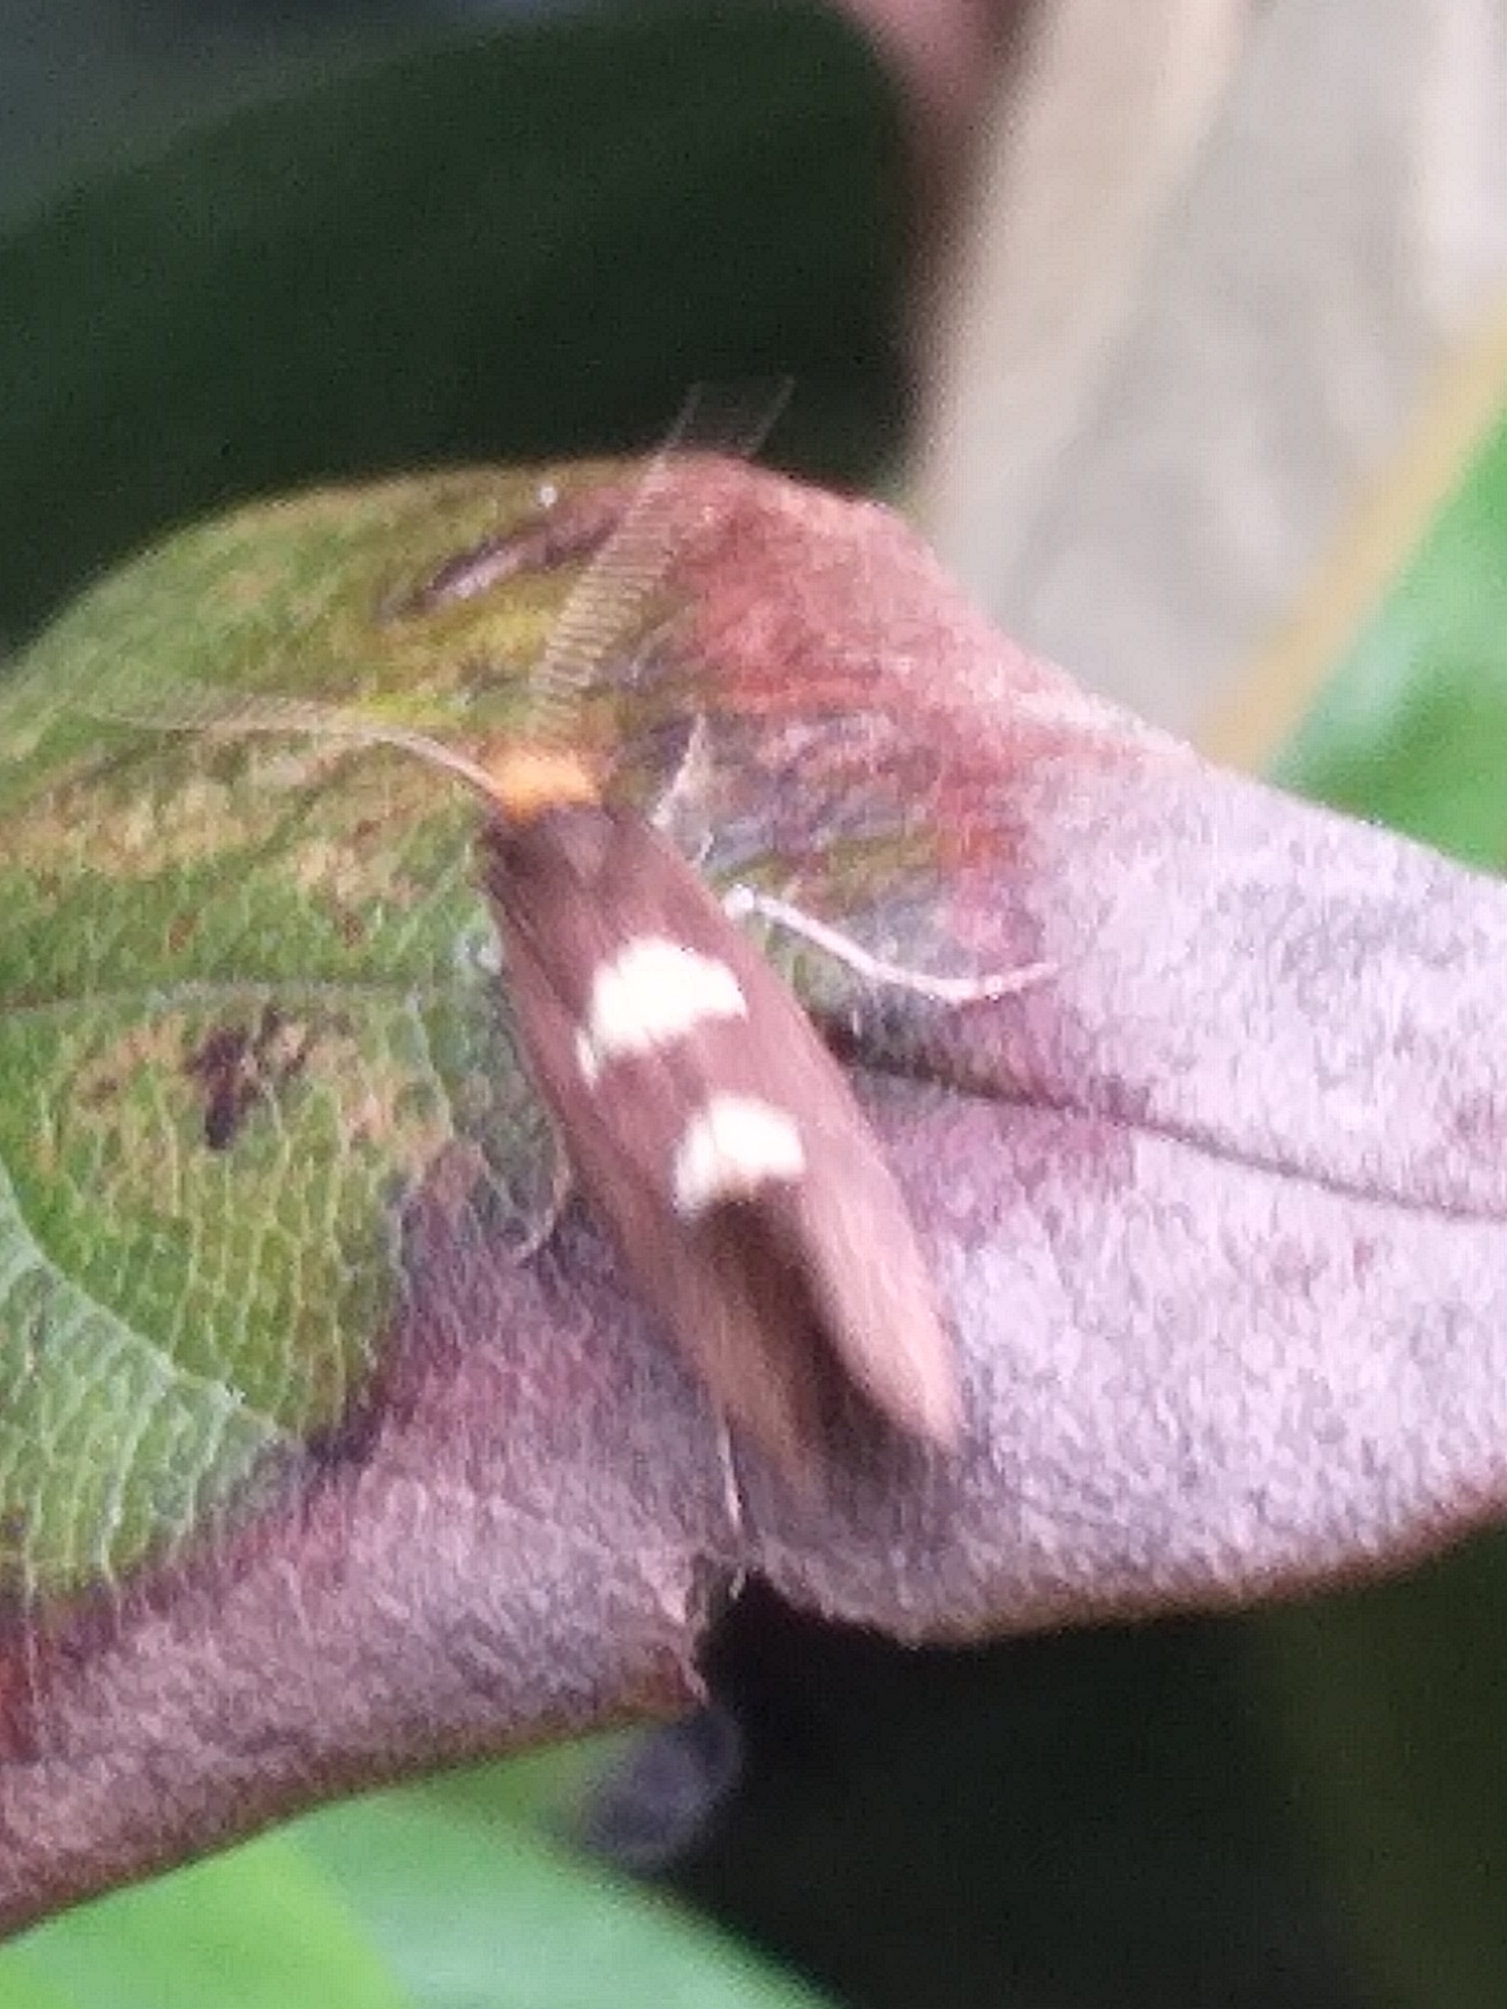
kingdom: Animalia
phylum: Arthropoda
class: Insecta
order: Lepidoptera
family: Incurvariidae
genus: Incurvaria
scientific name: Incurvaria masculella
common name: Feathered leaf-cutter
